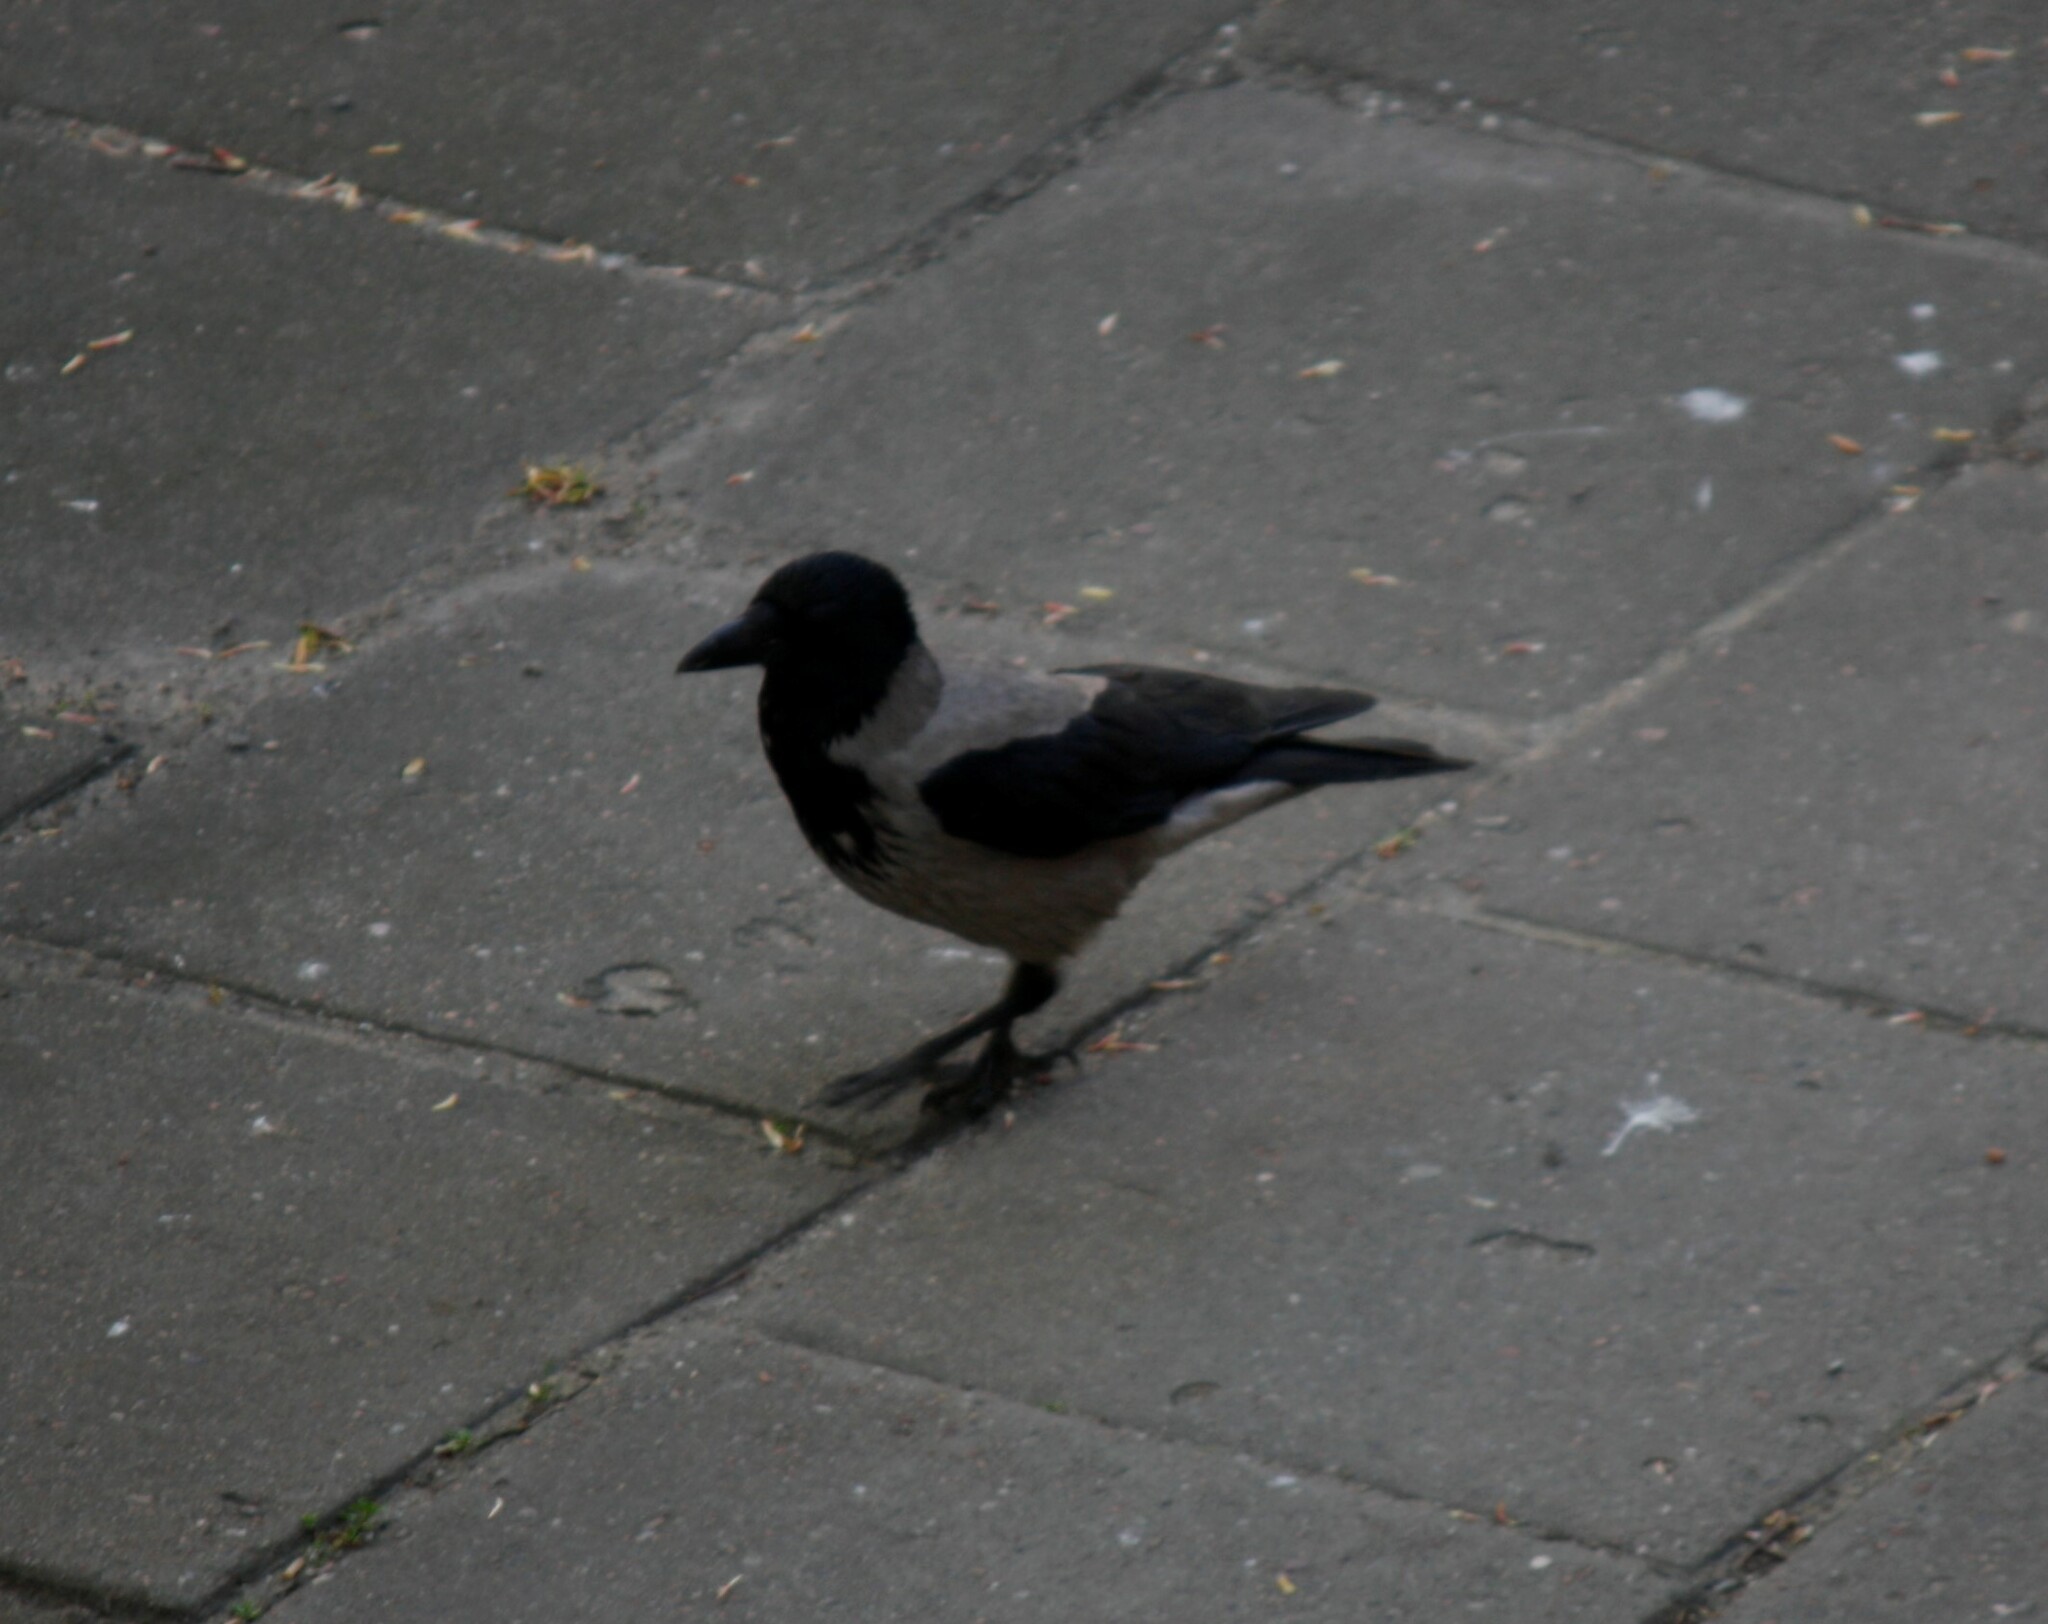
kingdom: Animalia
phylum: Chordata
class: Aves
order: Passeriformes
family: Corvidae
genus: Corvus
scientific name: Corvus cornix
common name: Hooded crow
